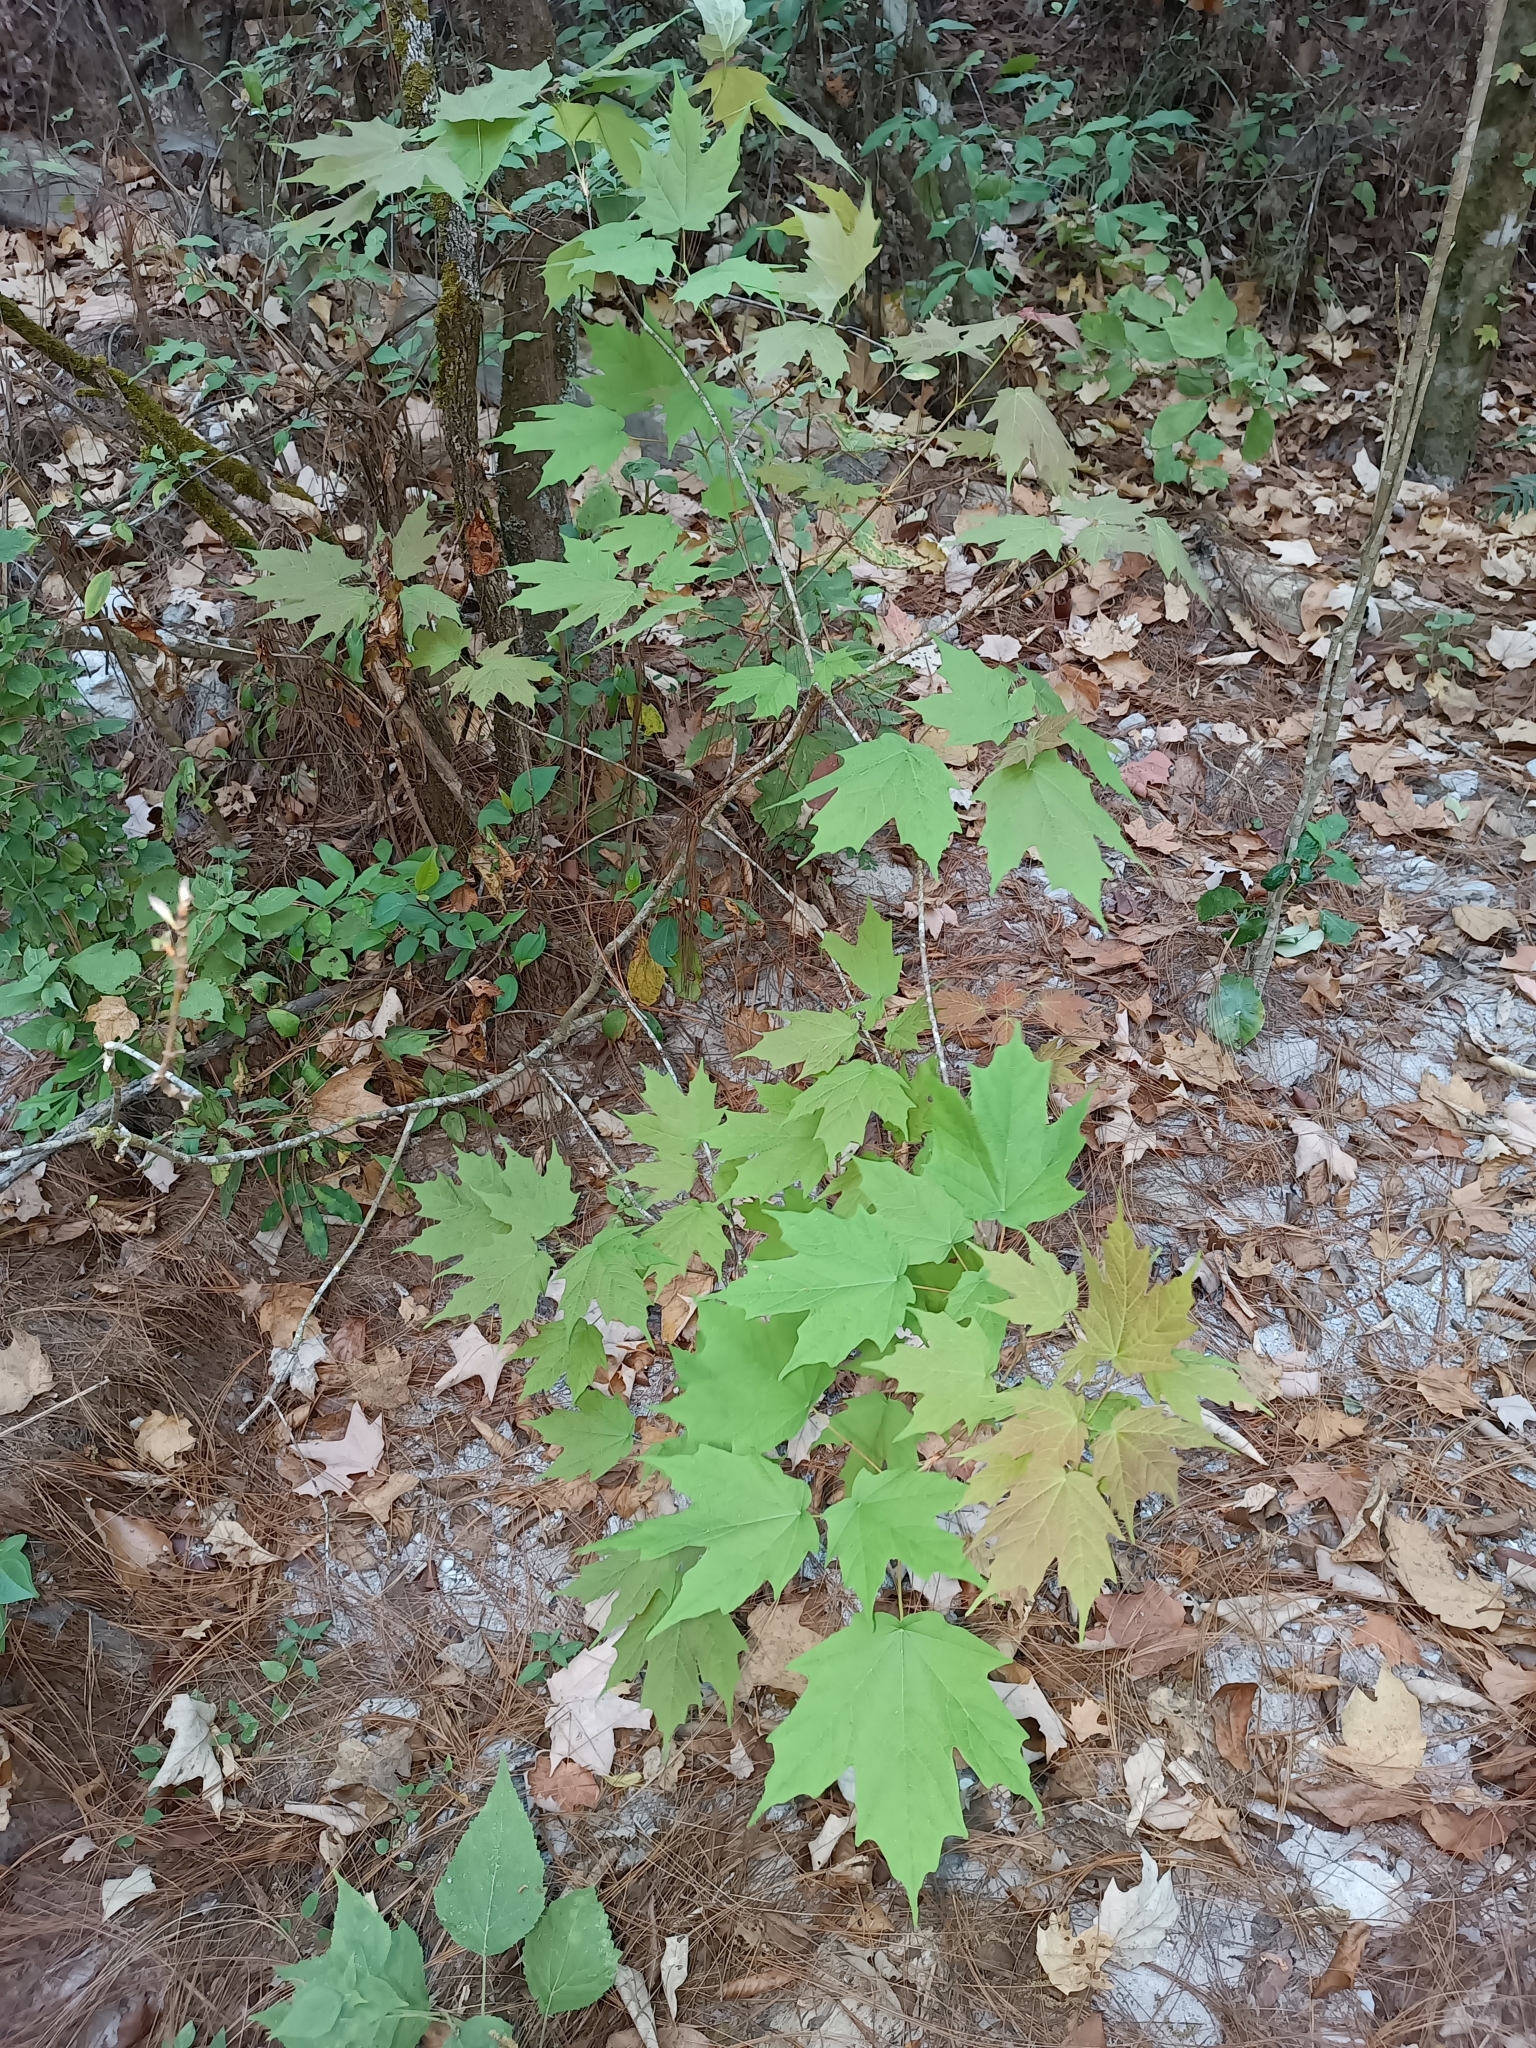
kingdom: Plantae
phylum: Tracheophyta
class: Magnoliopsida
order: Sapindales
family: Sapindaceae
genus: Acer
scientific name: Acer binzayedii
